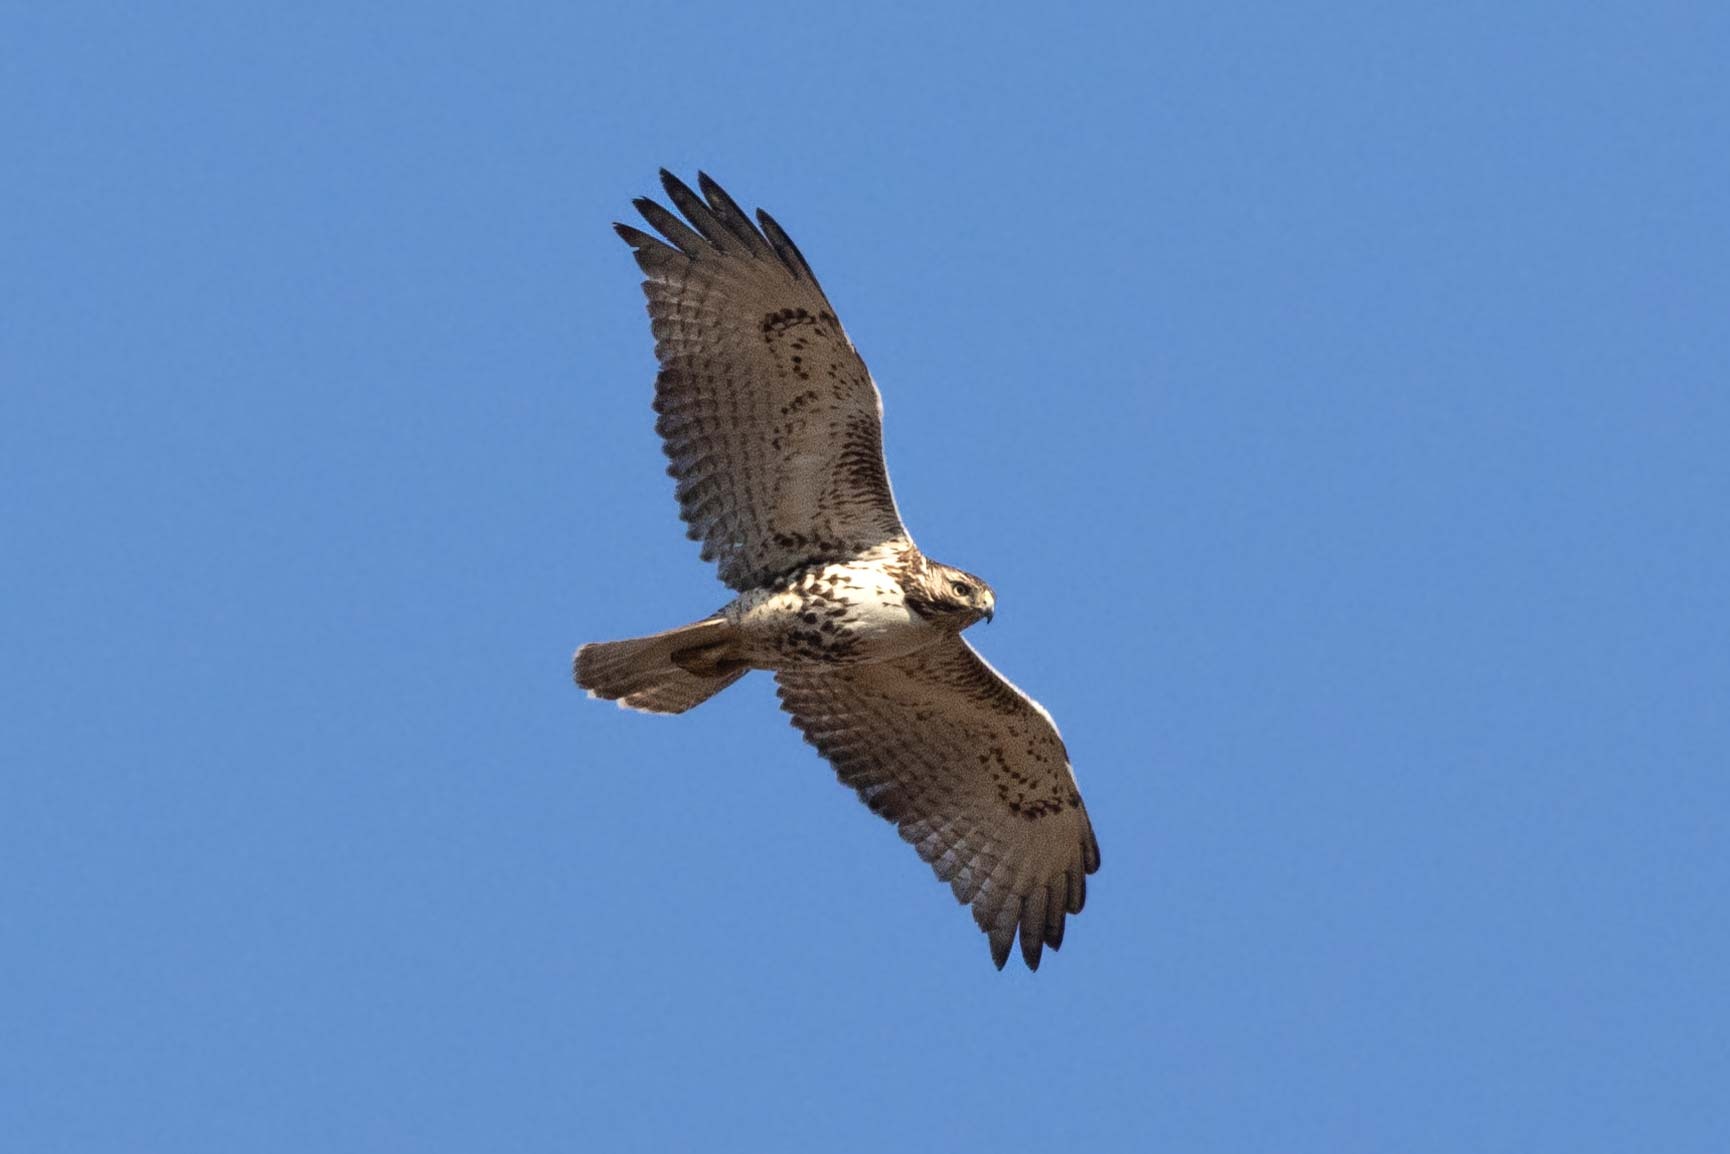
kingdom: Animalia
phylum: Chordata
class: Aves
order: Accipitriformes
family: Accipitridae
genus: Buteo
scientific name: Buteo jamaicensis
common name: Red-tailed hawk
